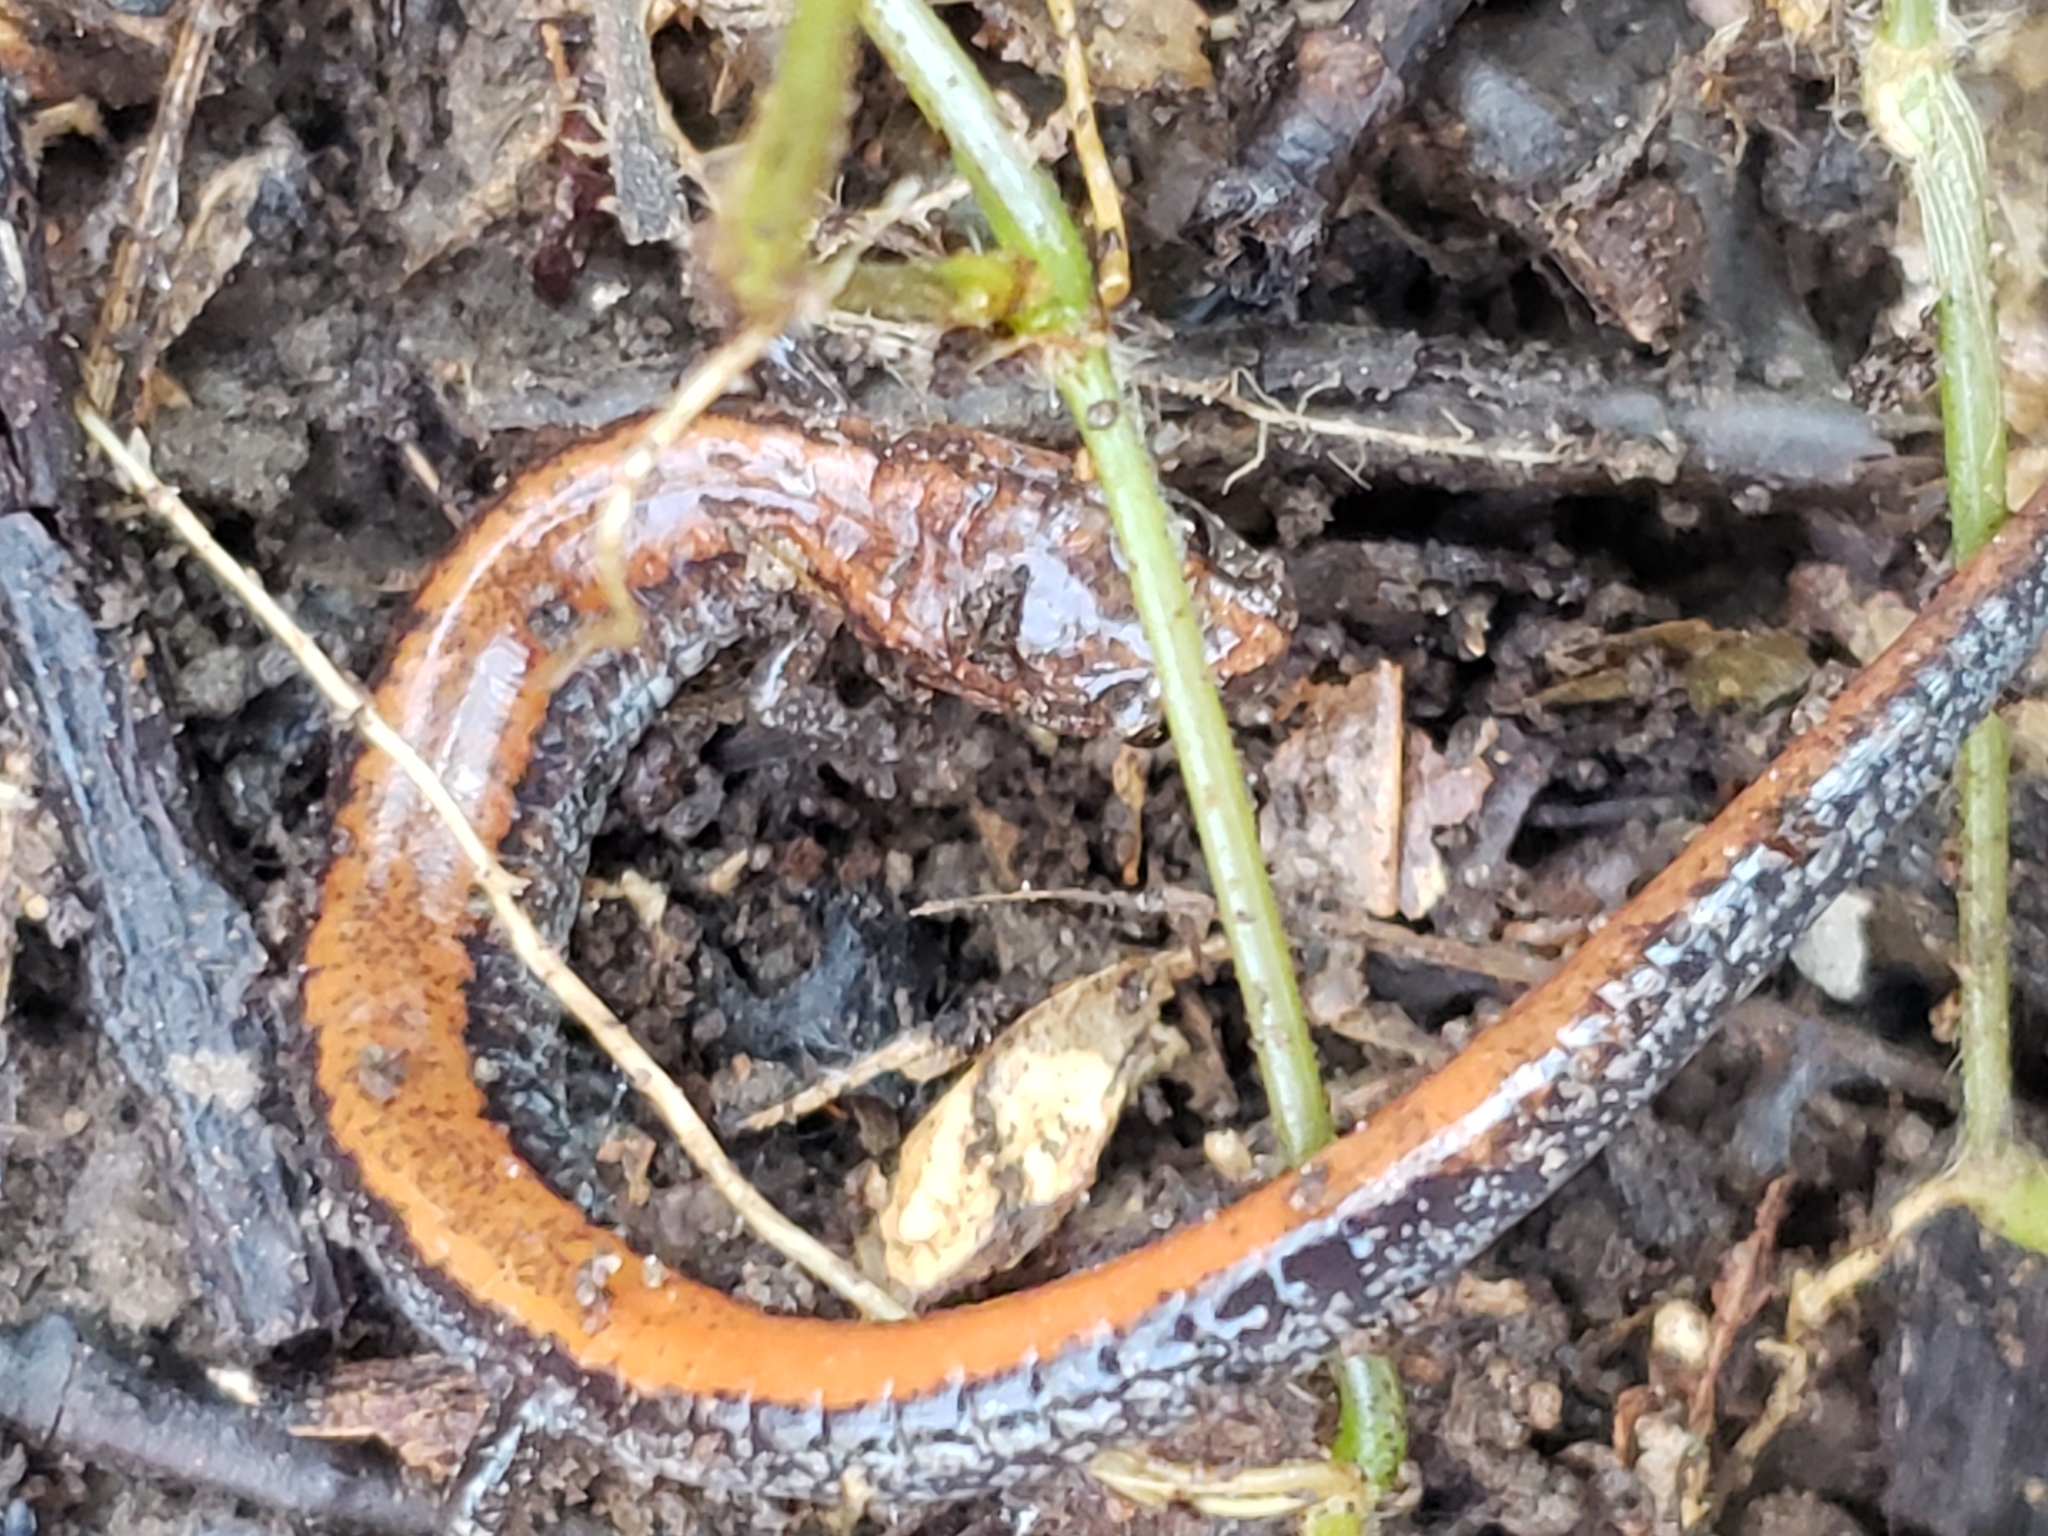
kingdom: Animalia
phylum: Chordata
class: Amphibia
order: Caudata
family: Plethodontidae
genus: Plethodon
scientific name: Plethodon cinereus
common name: Redback salamander
